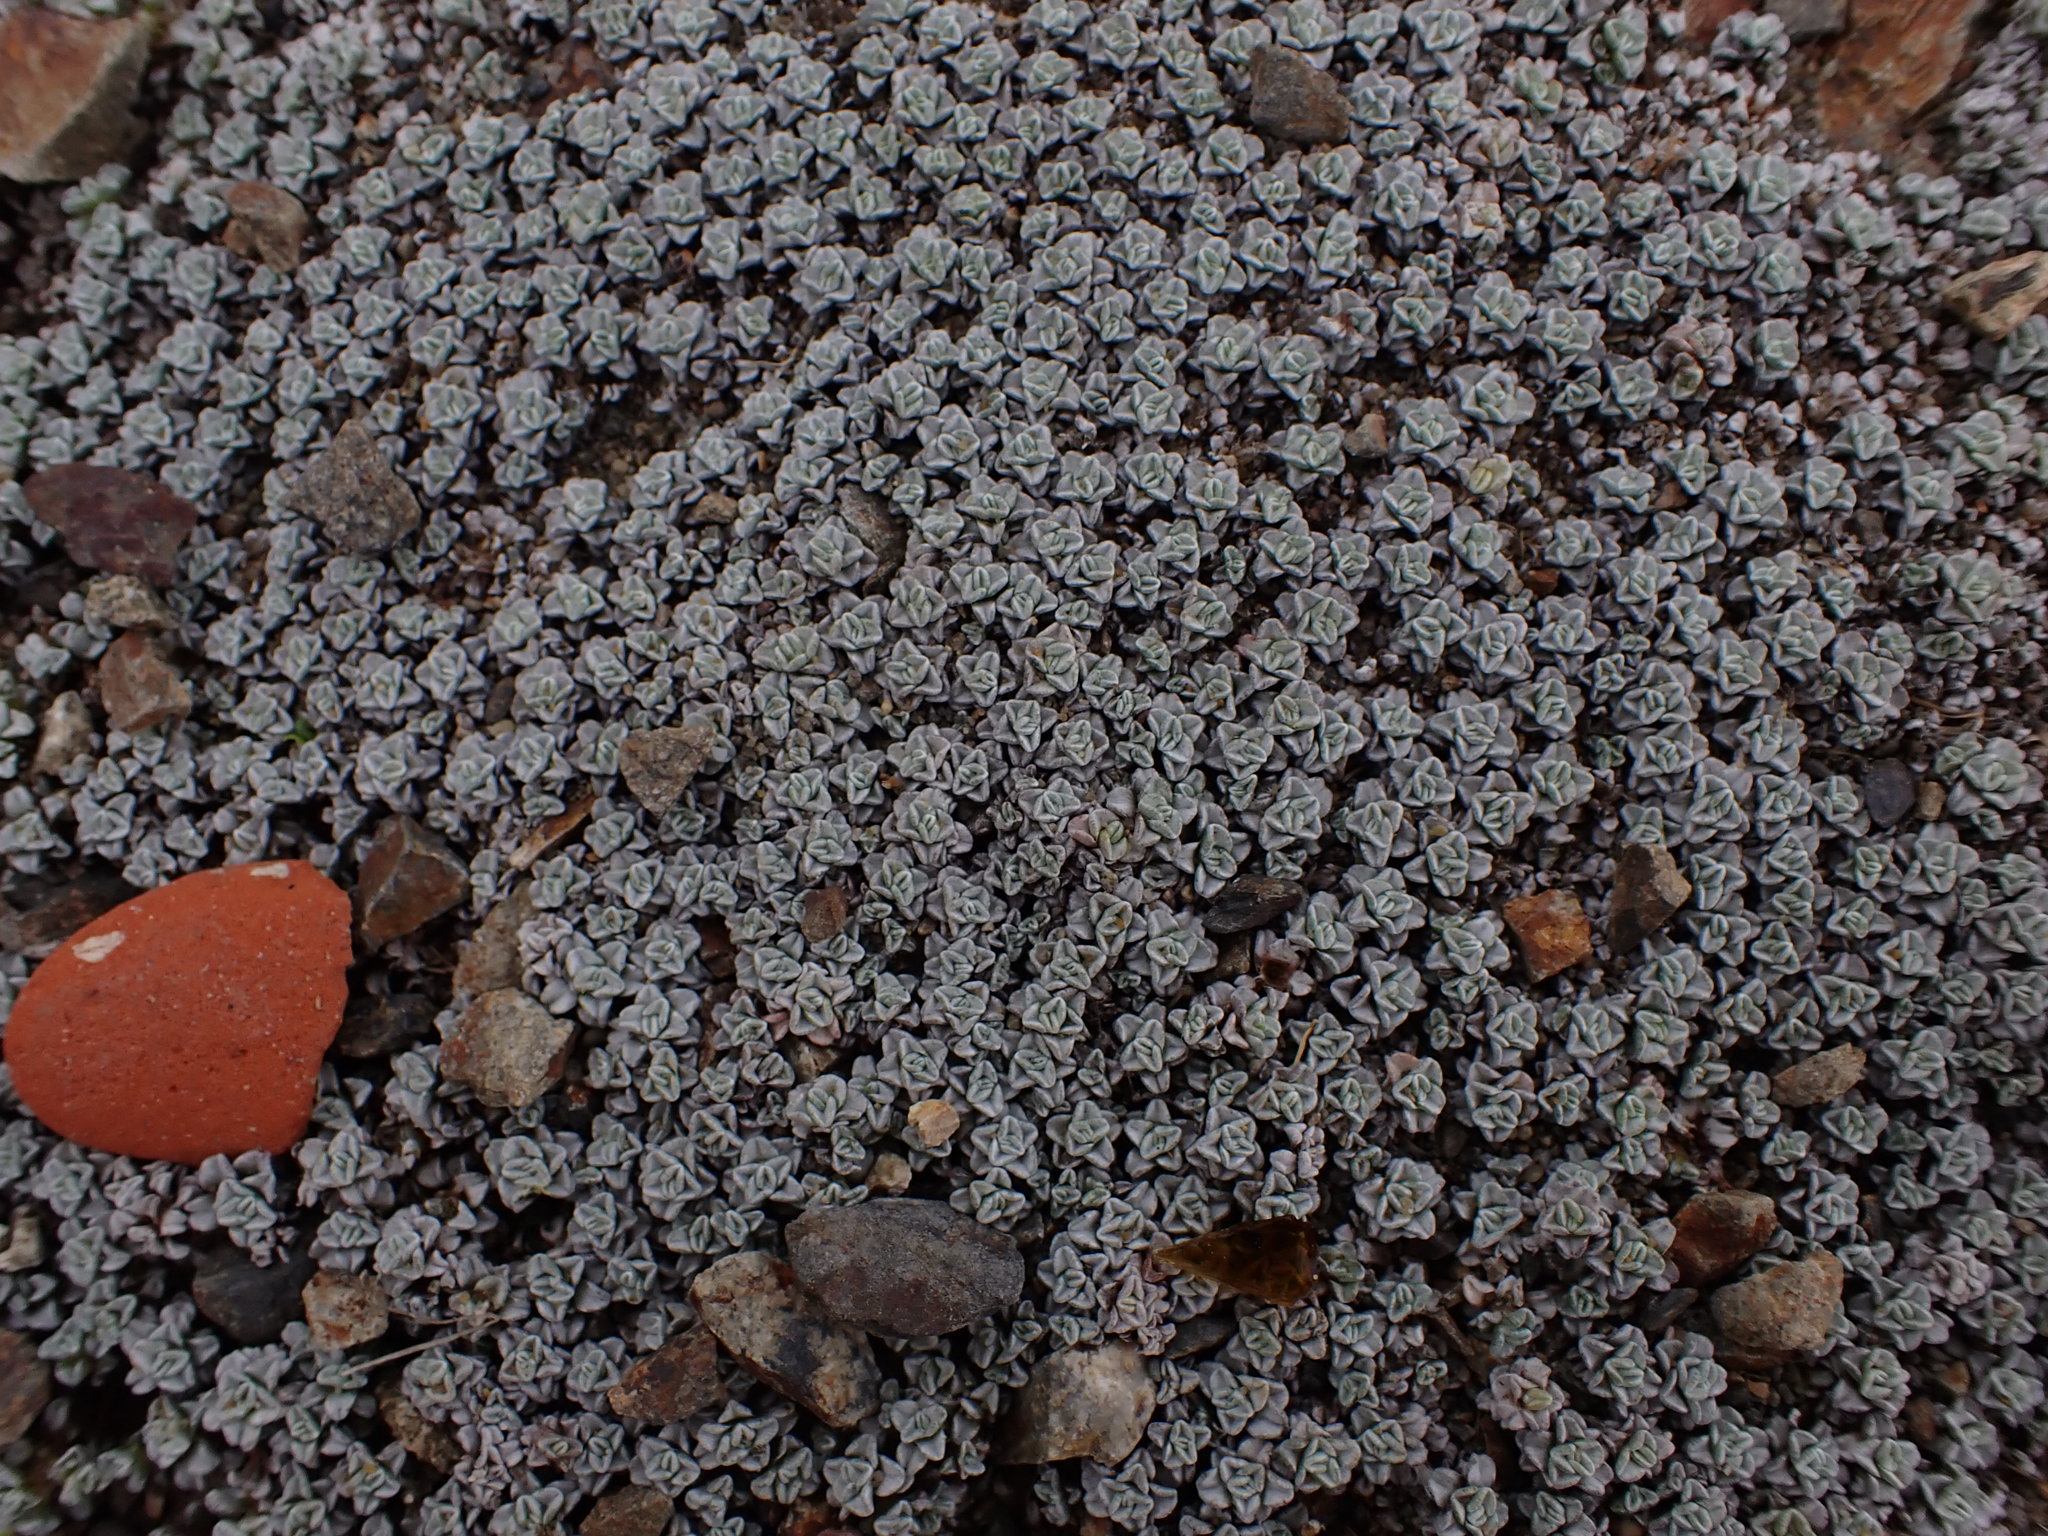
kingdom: Plantae
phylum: Tracheophyta
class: Magnoliopsida
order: Asterales
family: Asteraceae
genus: Raoulia
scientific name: Raoulia hookeri
